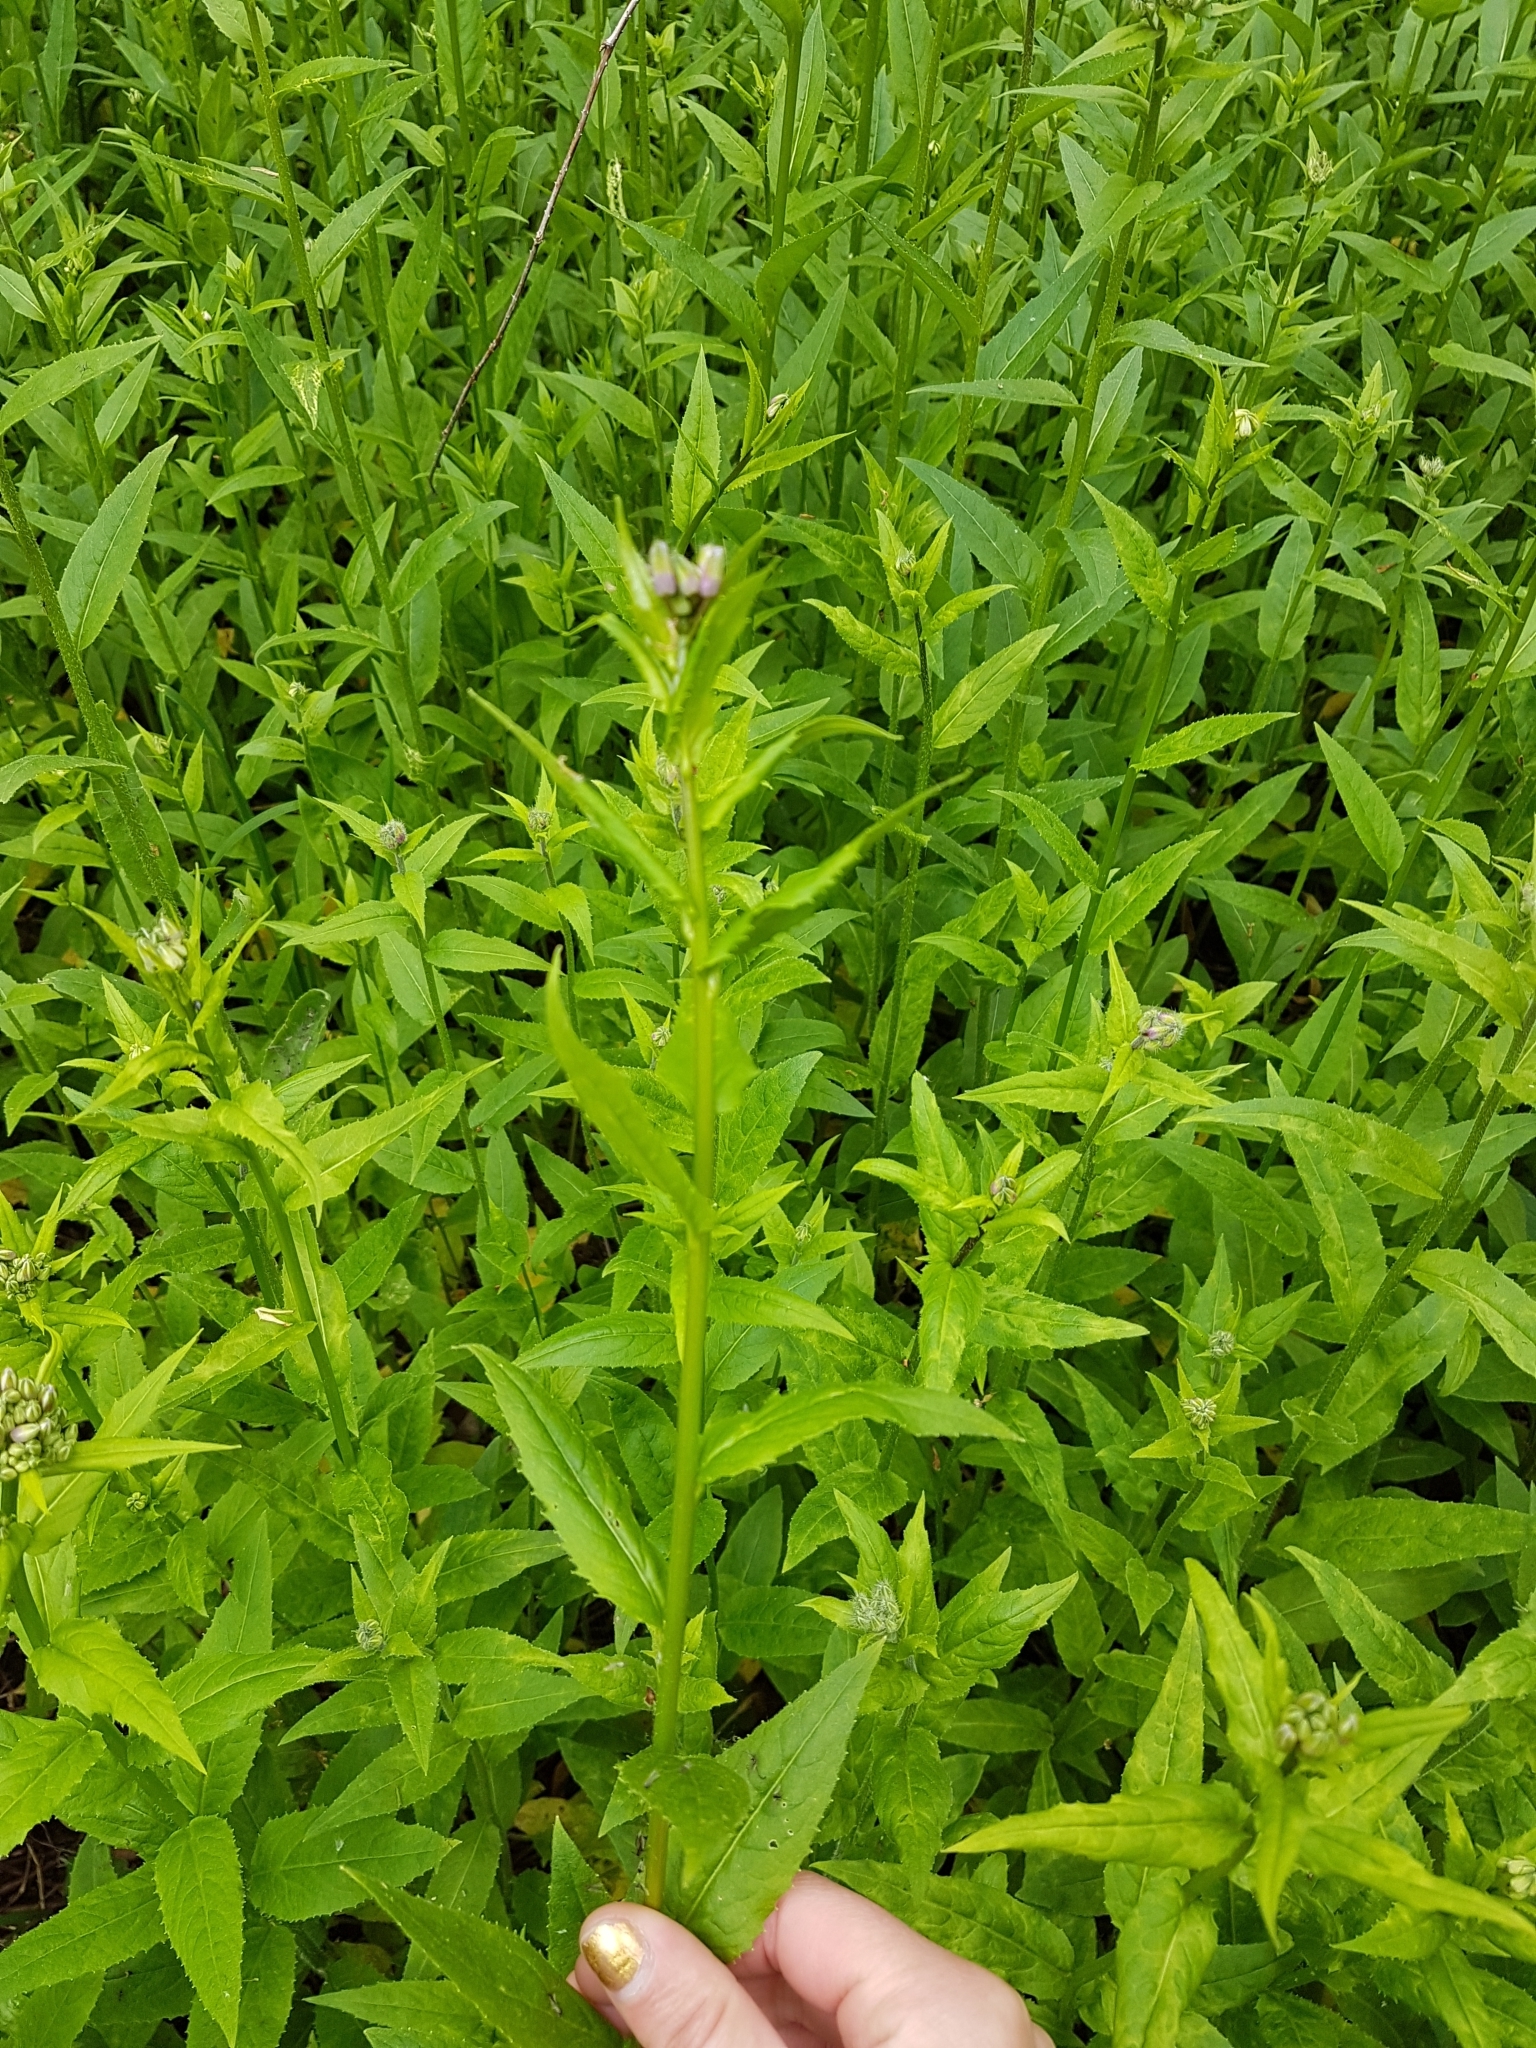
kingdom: Plantae
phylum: Tracheophyta
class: Magnoliopsida
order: Brassicales
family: Brassicaceae
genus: Hesperis
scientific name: Hesperis matronalis
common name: Dame's-violet
